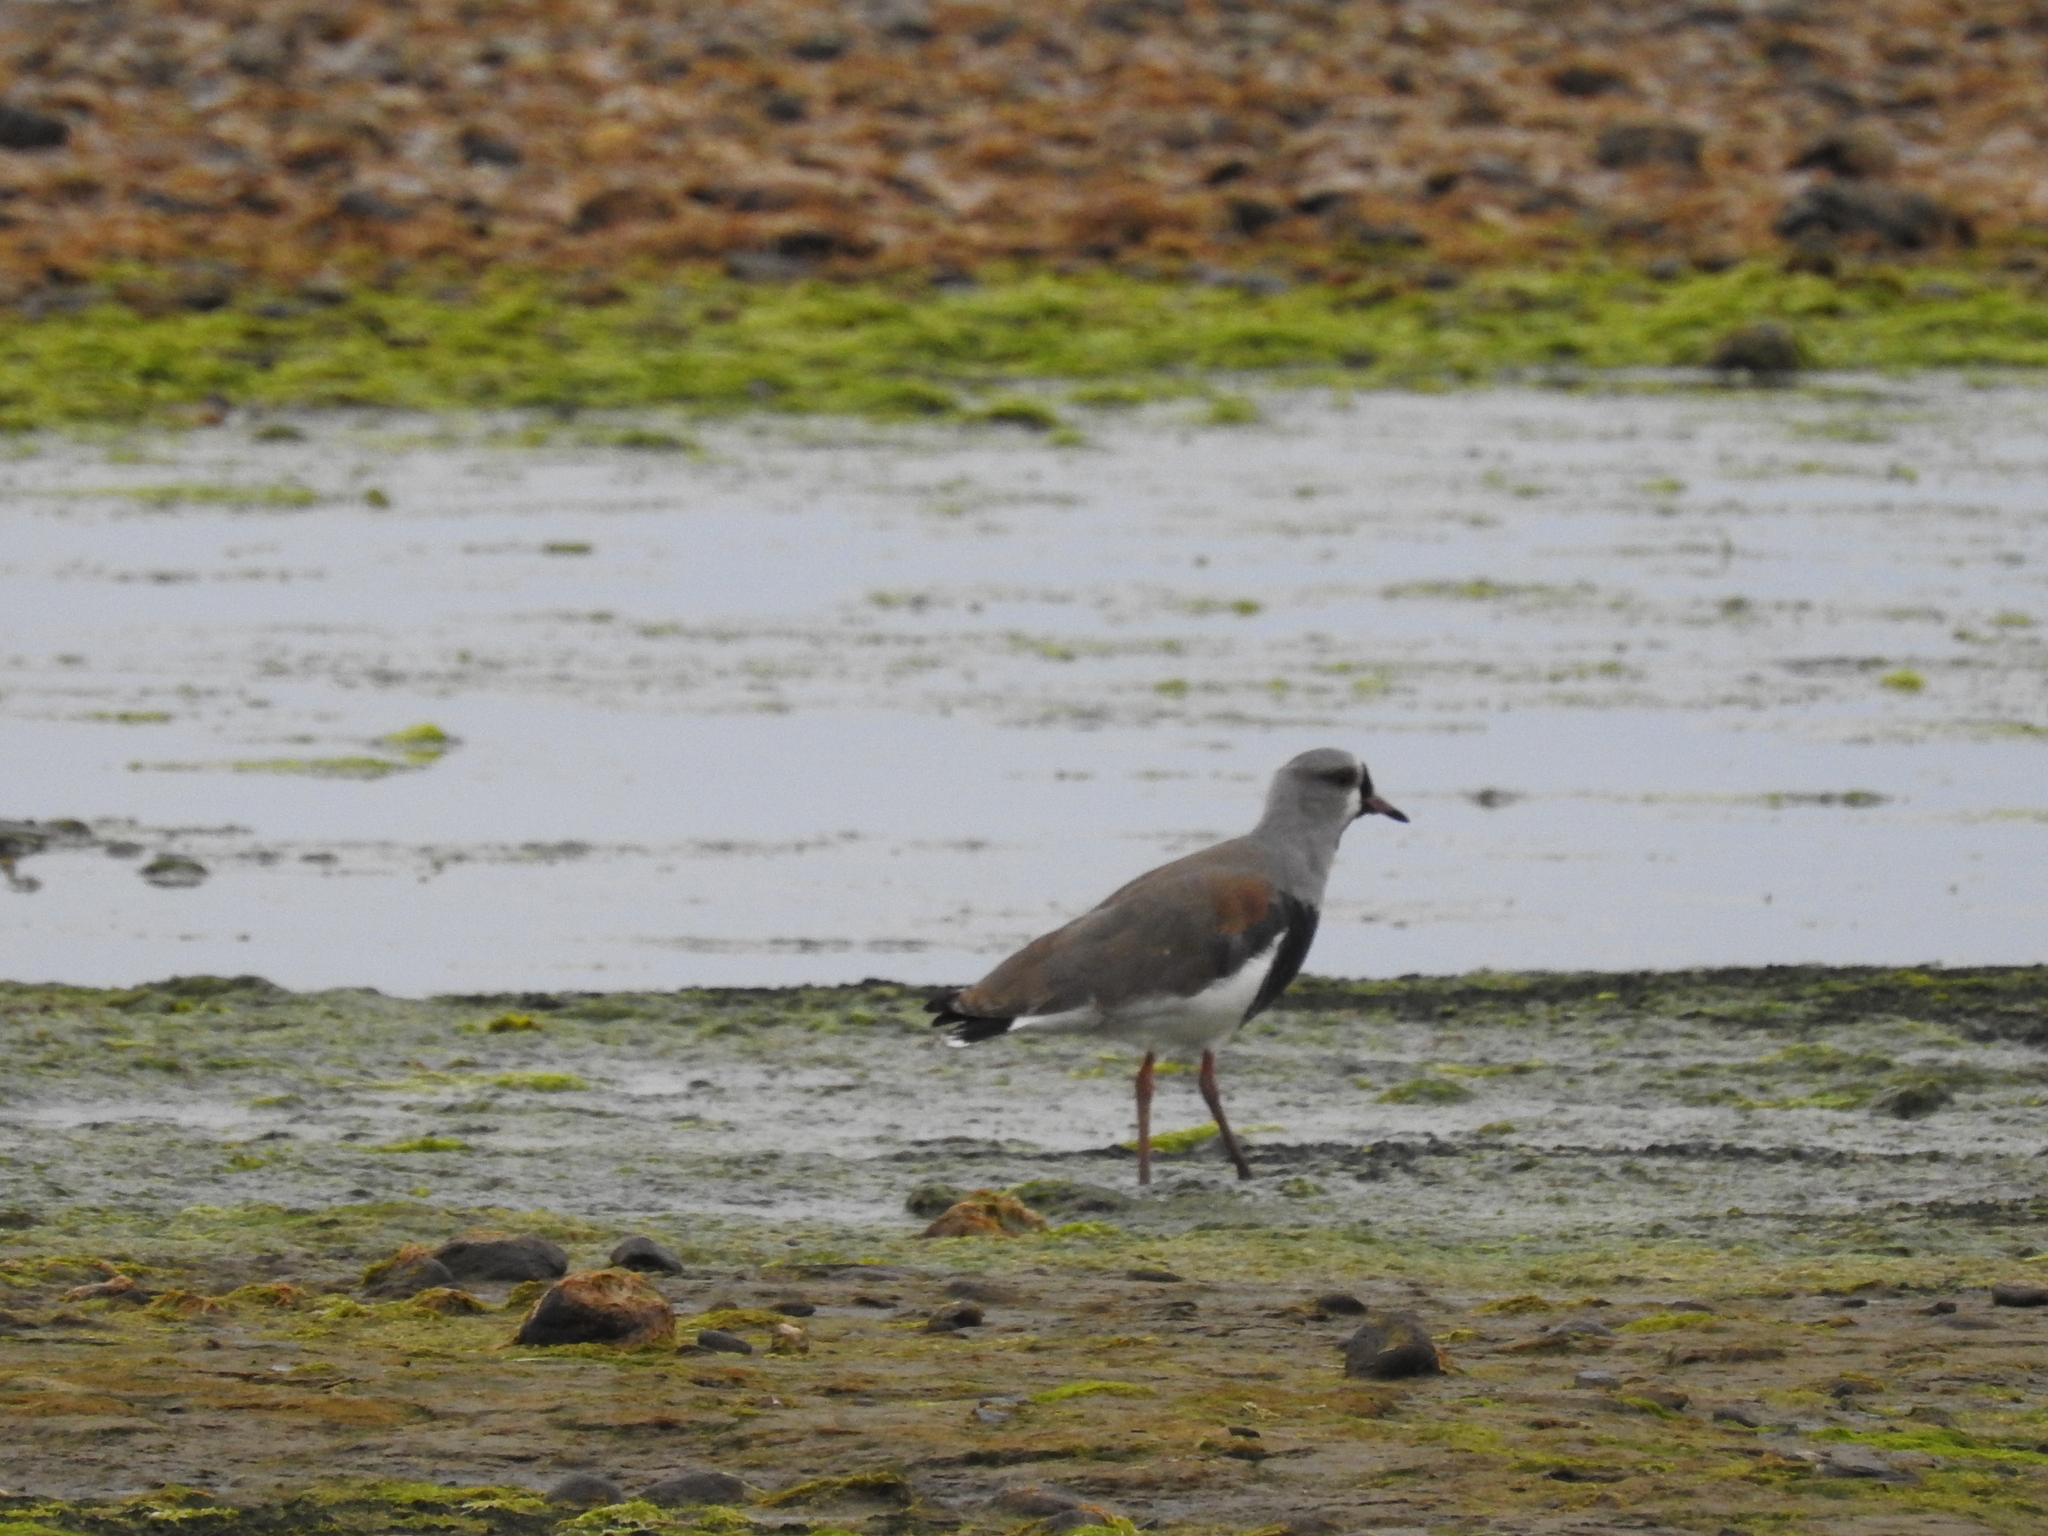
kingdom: Animalia
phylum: Chordata
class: Aves
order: Charadriiformes
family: Charadriidae
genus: Vanellus
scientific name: Vanellus chilensis
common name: Southern lapwing
